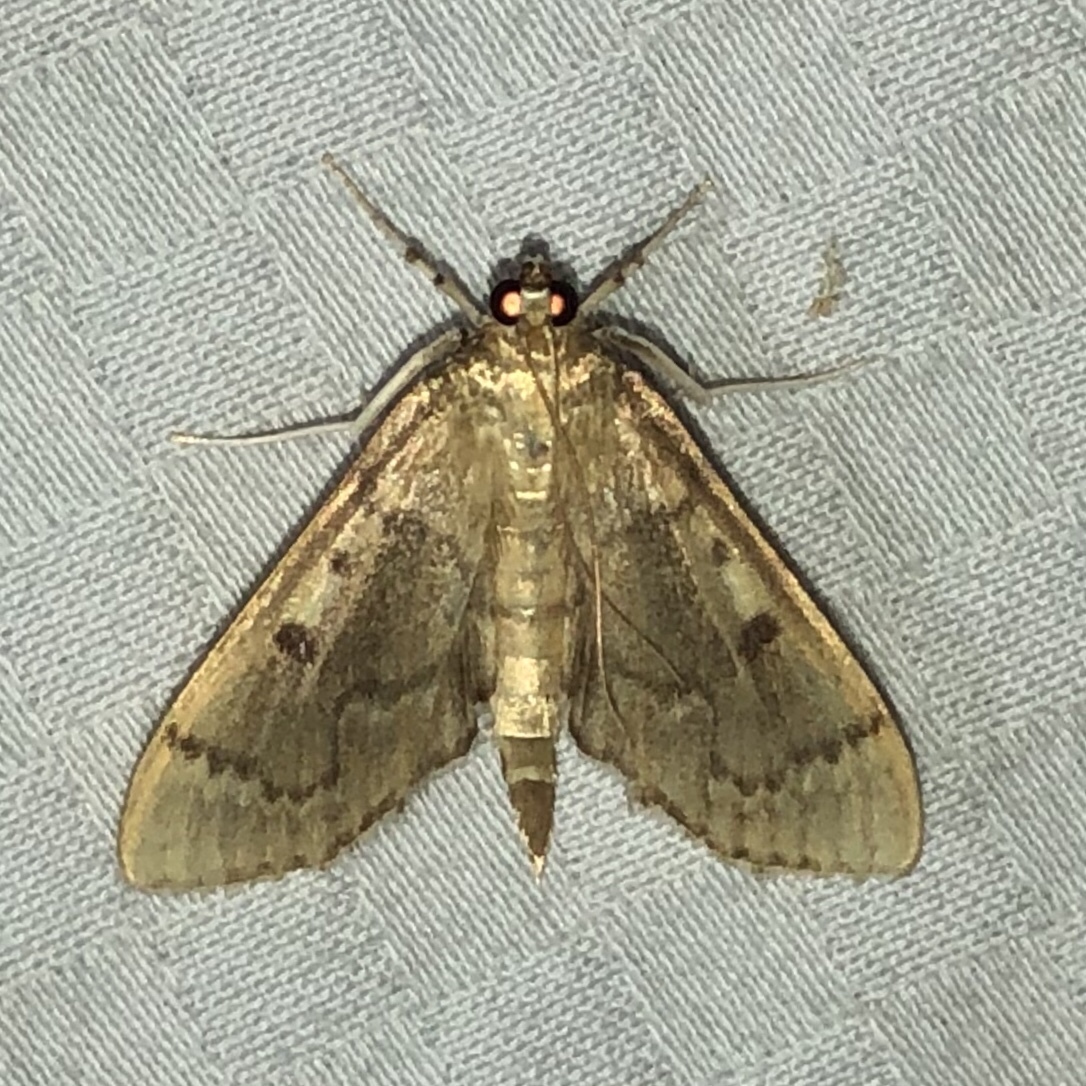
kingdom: Animalia
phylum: Arthropoda
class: Insecta
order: Lepidoptera
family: Crambidae
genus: Herpetogramma
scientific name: Herpetogramma aeglealis
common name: Serpentine webworm moth
